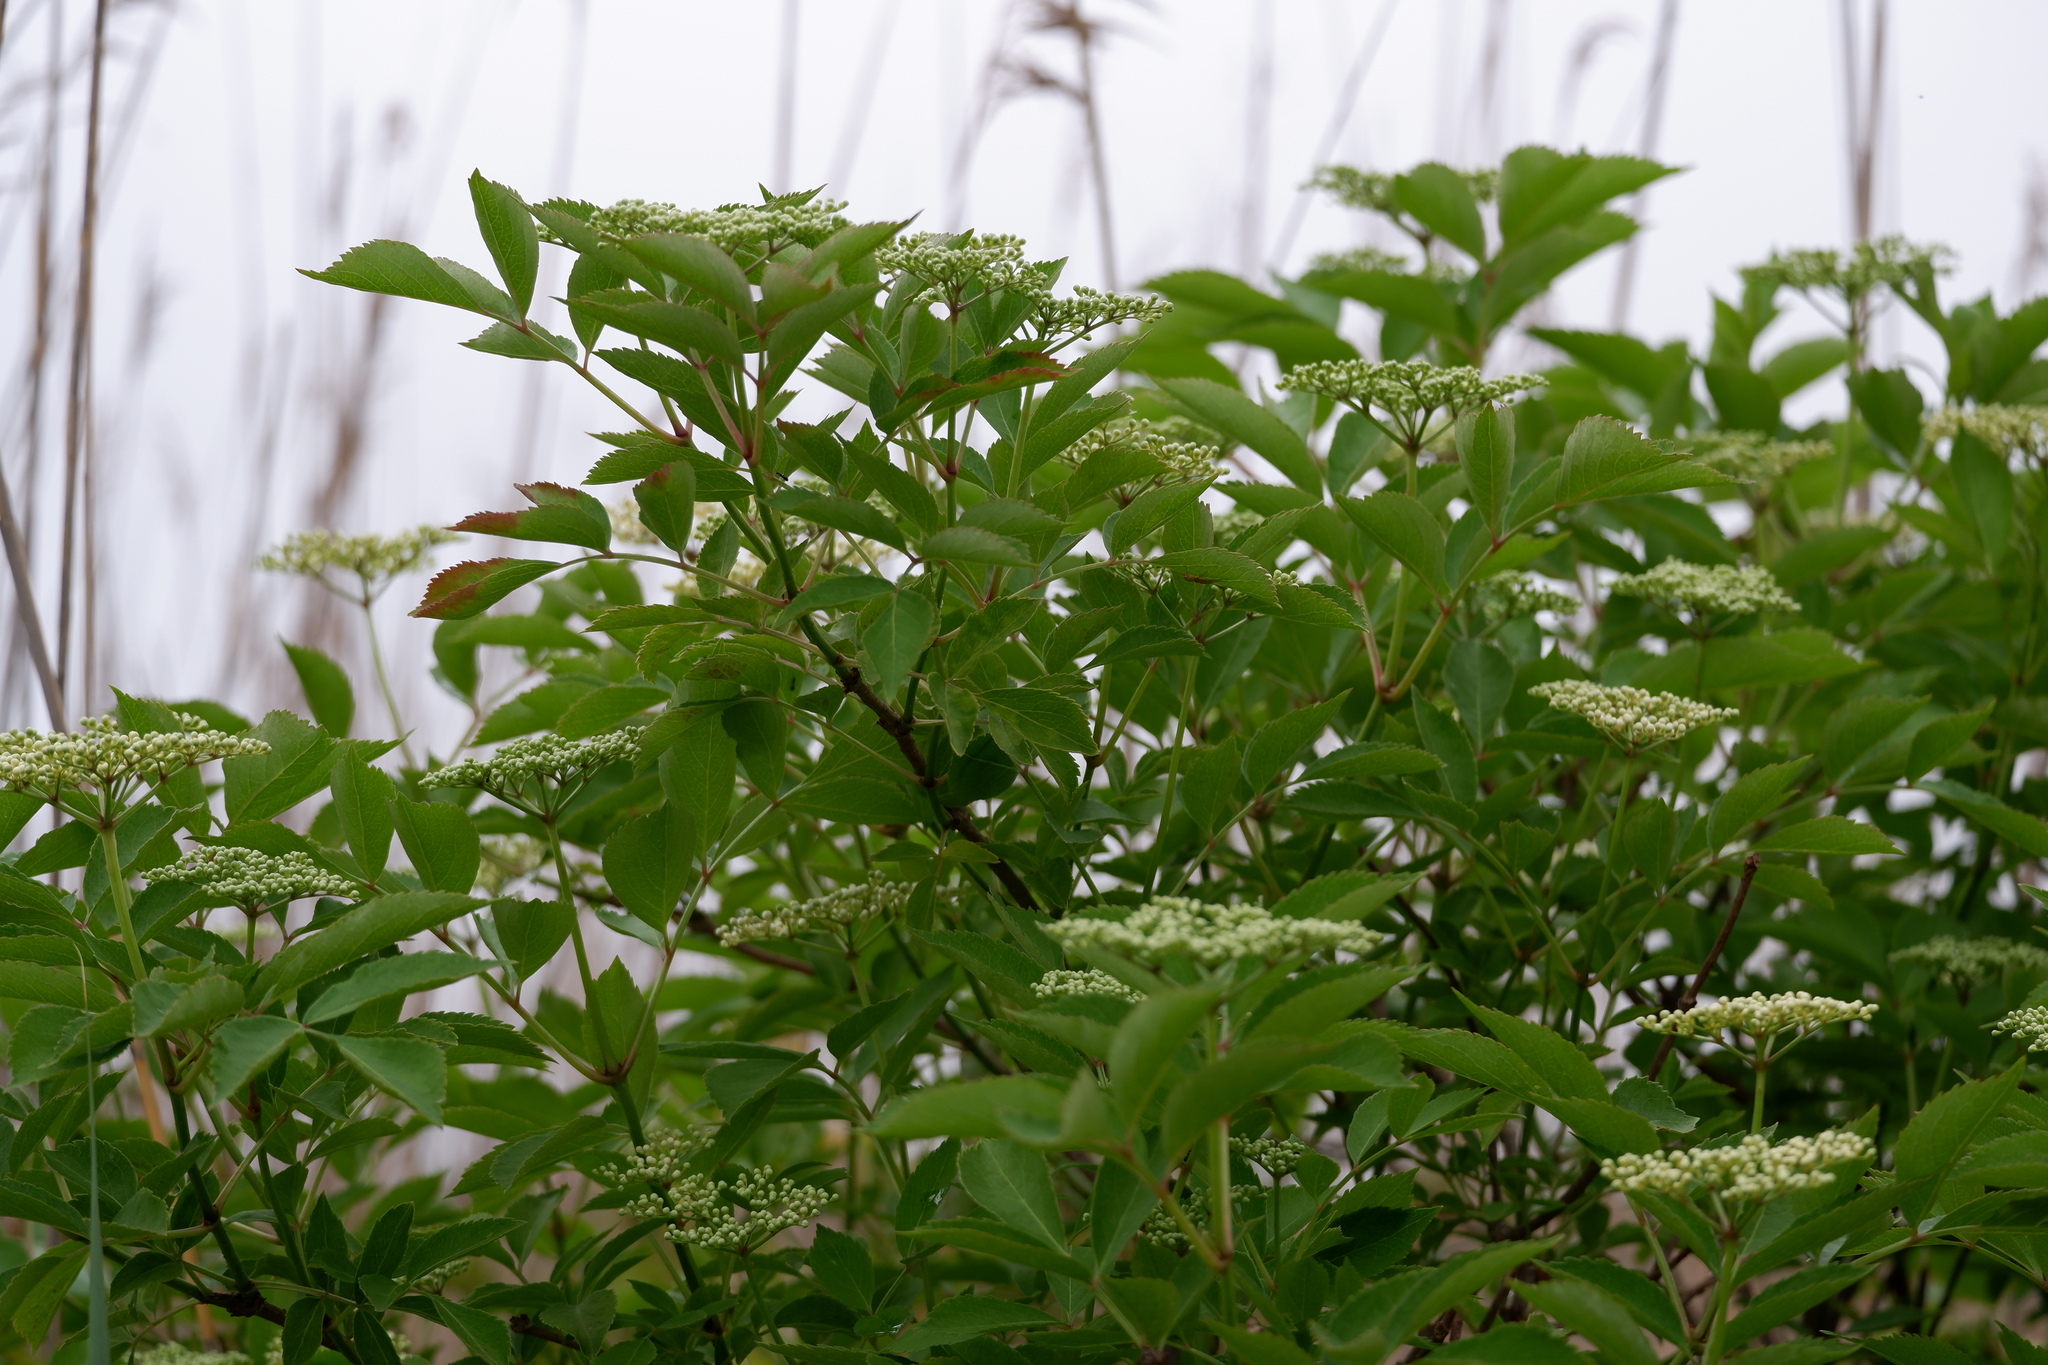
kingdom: Plantae
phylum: Tracheophyta
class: Magnoliopsida
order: Dipsacales
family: Viburnaceae
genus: Sambucus
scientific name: Sambucus canadensis
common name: American elder
